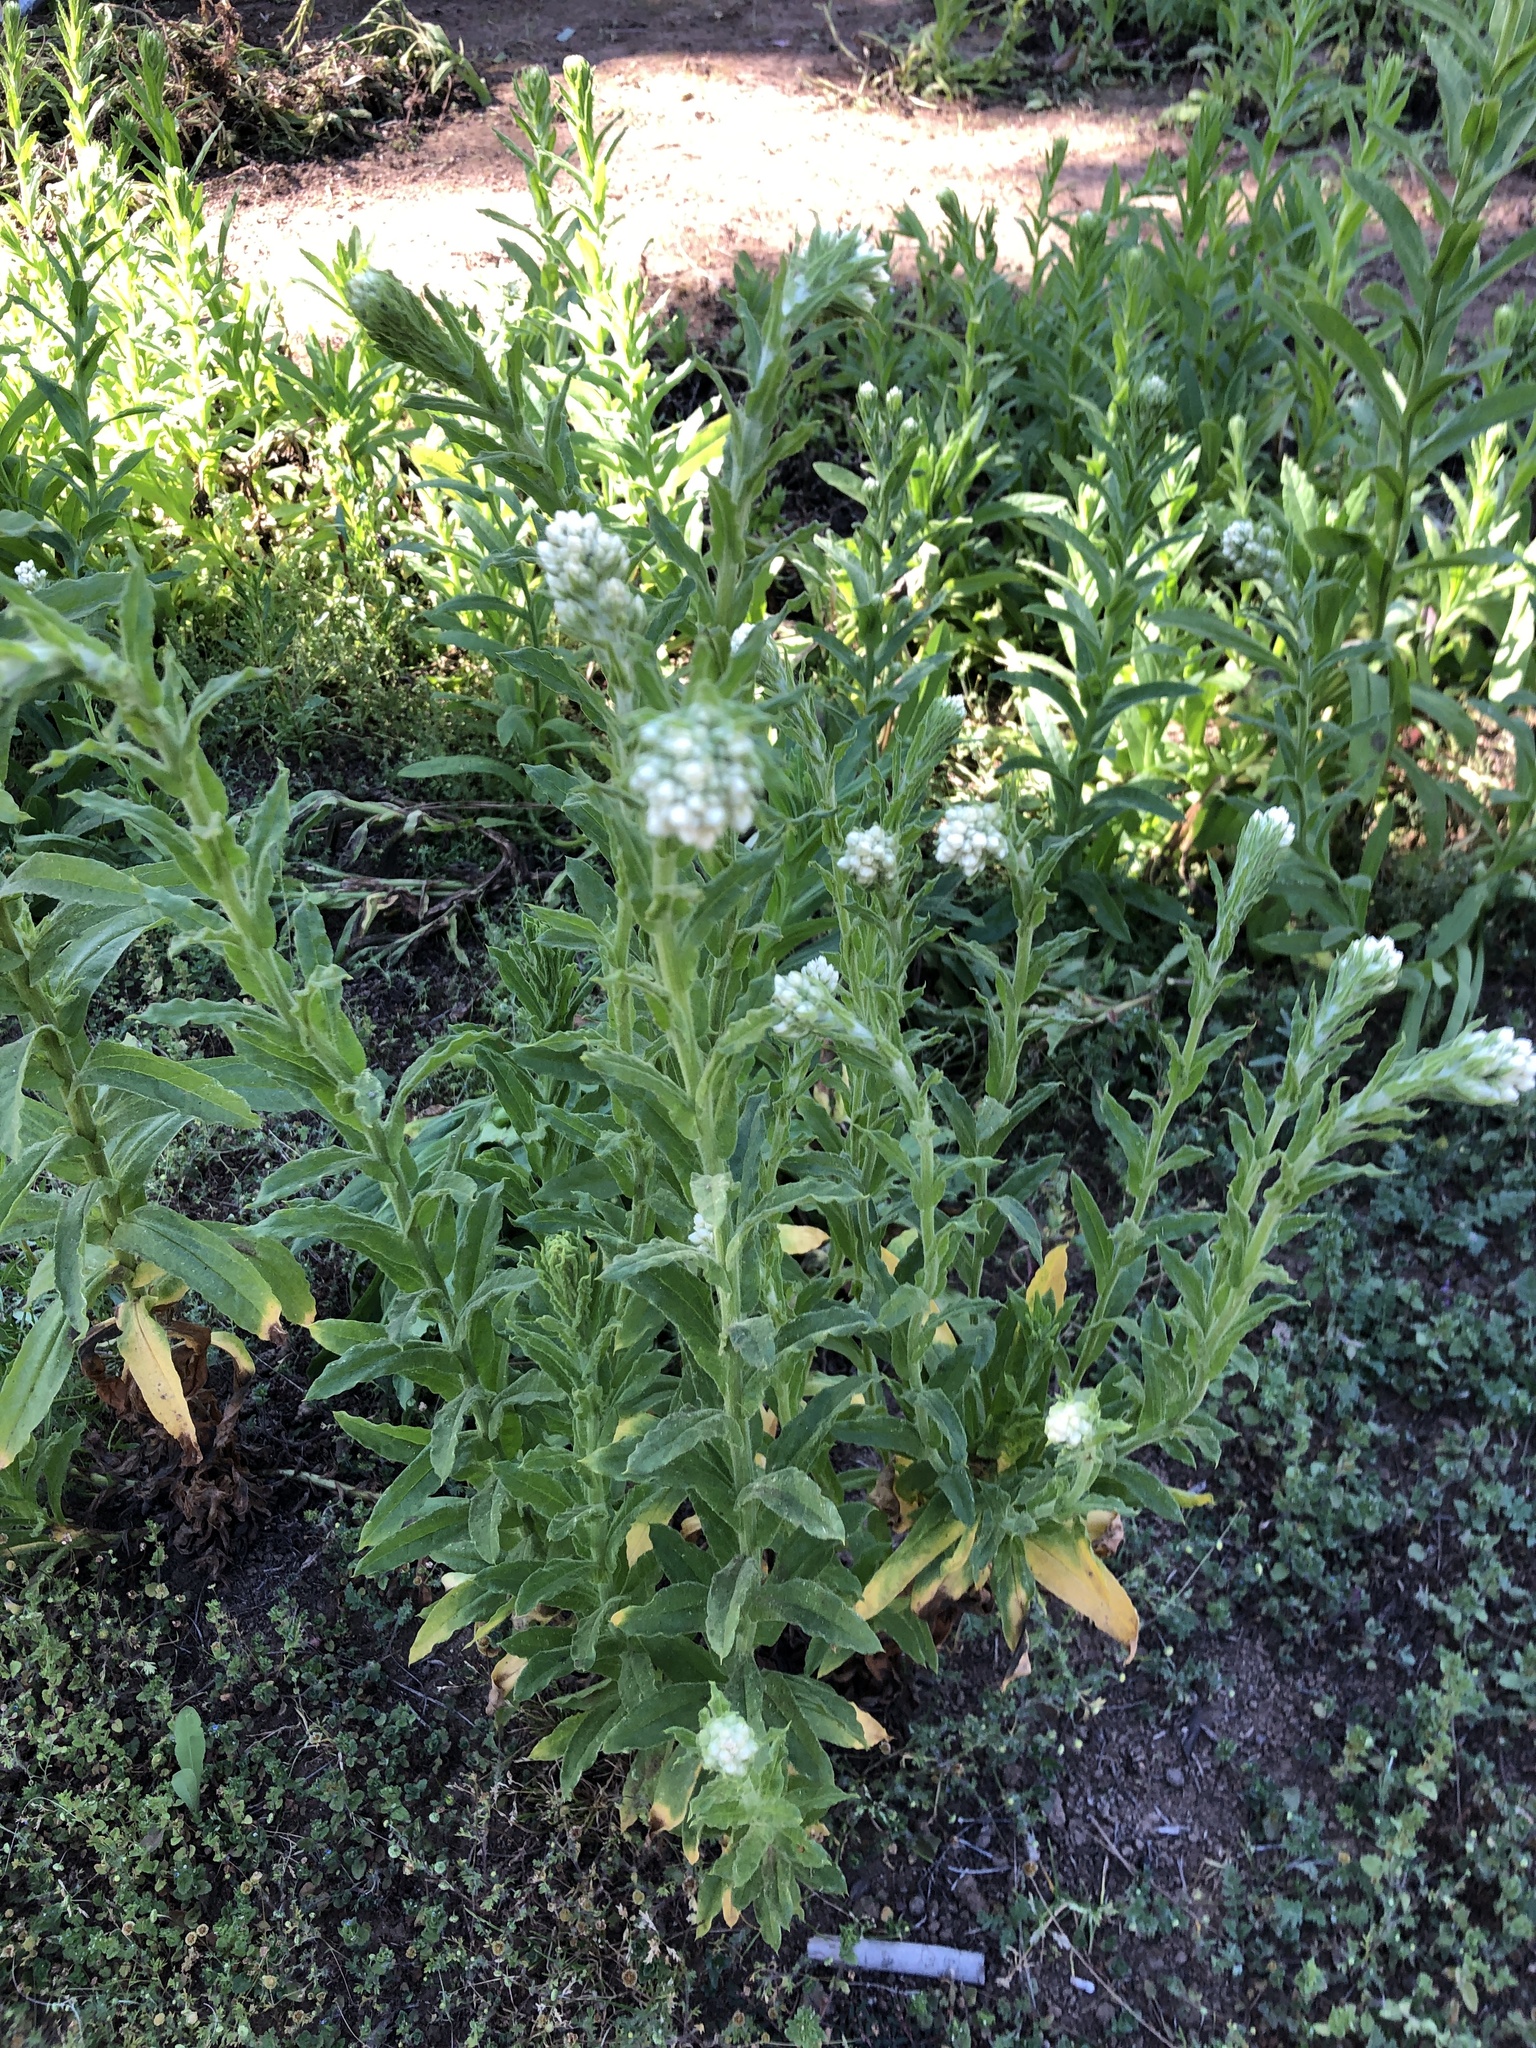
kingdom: Plantae
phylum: Tracheophyta
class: Magnoliopsida
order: Asterales
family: Asteraceae
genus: Pseudognaphalium
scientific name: Pseudognaphalium californicum
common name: California rabbit-tobacco
